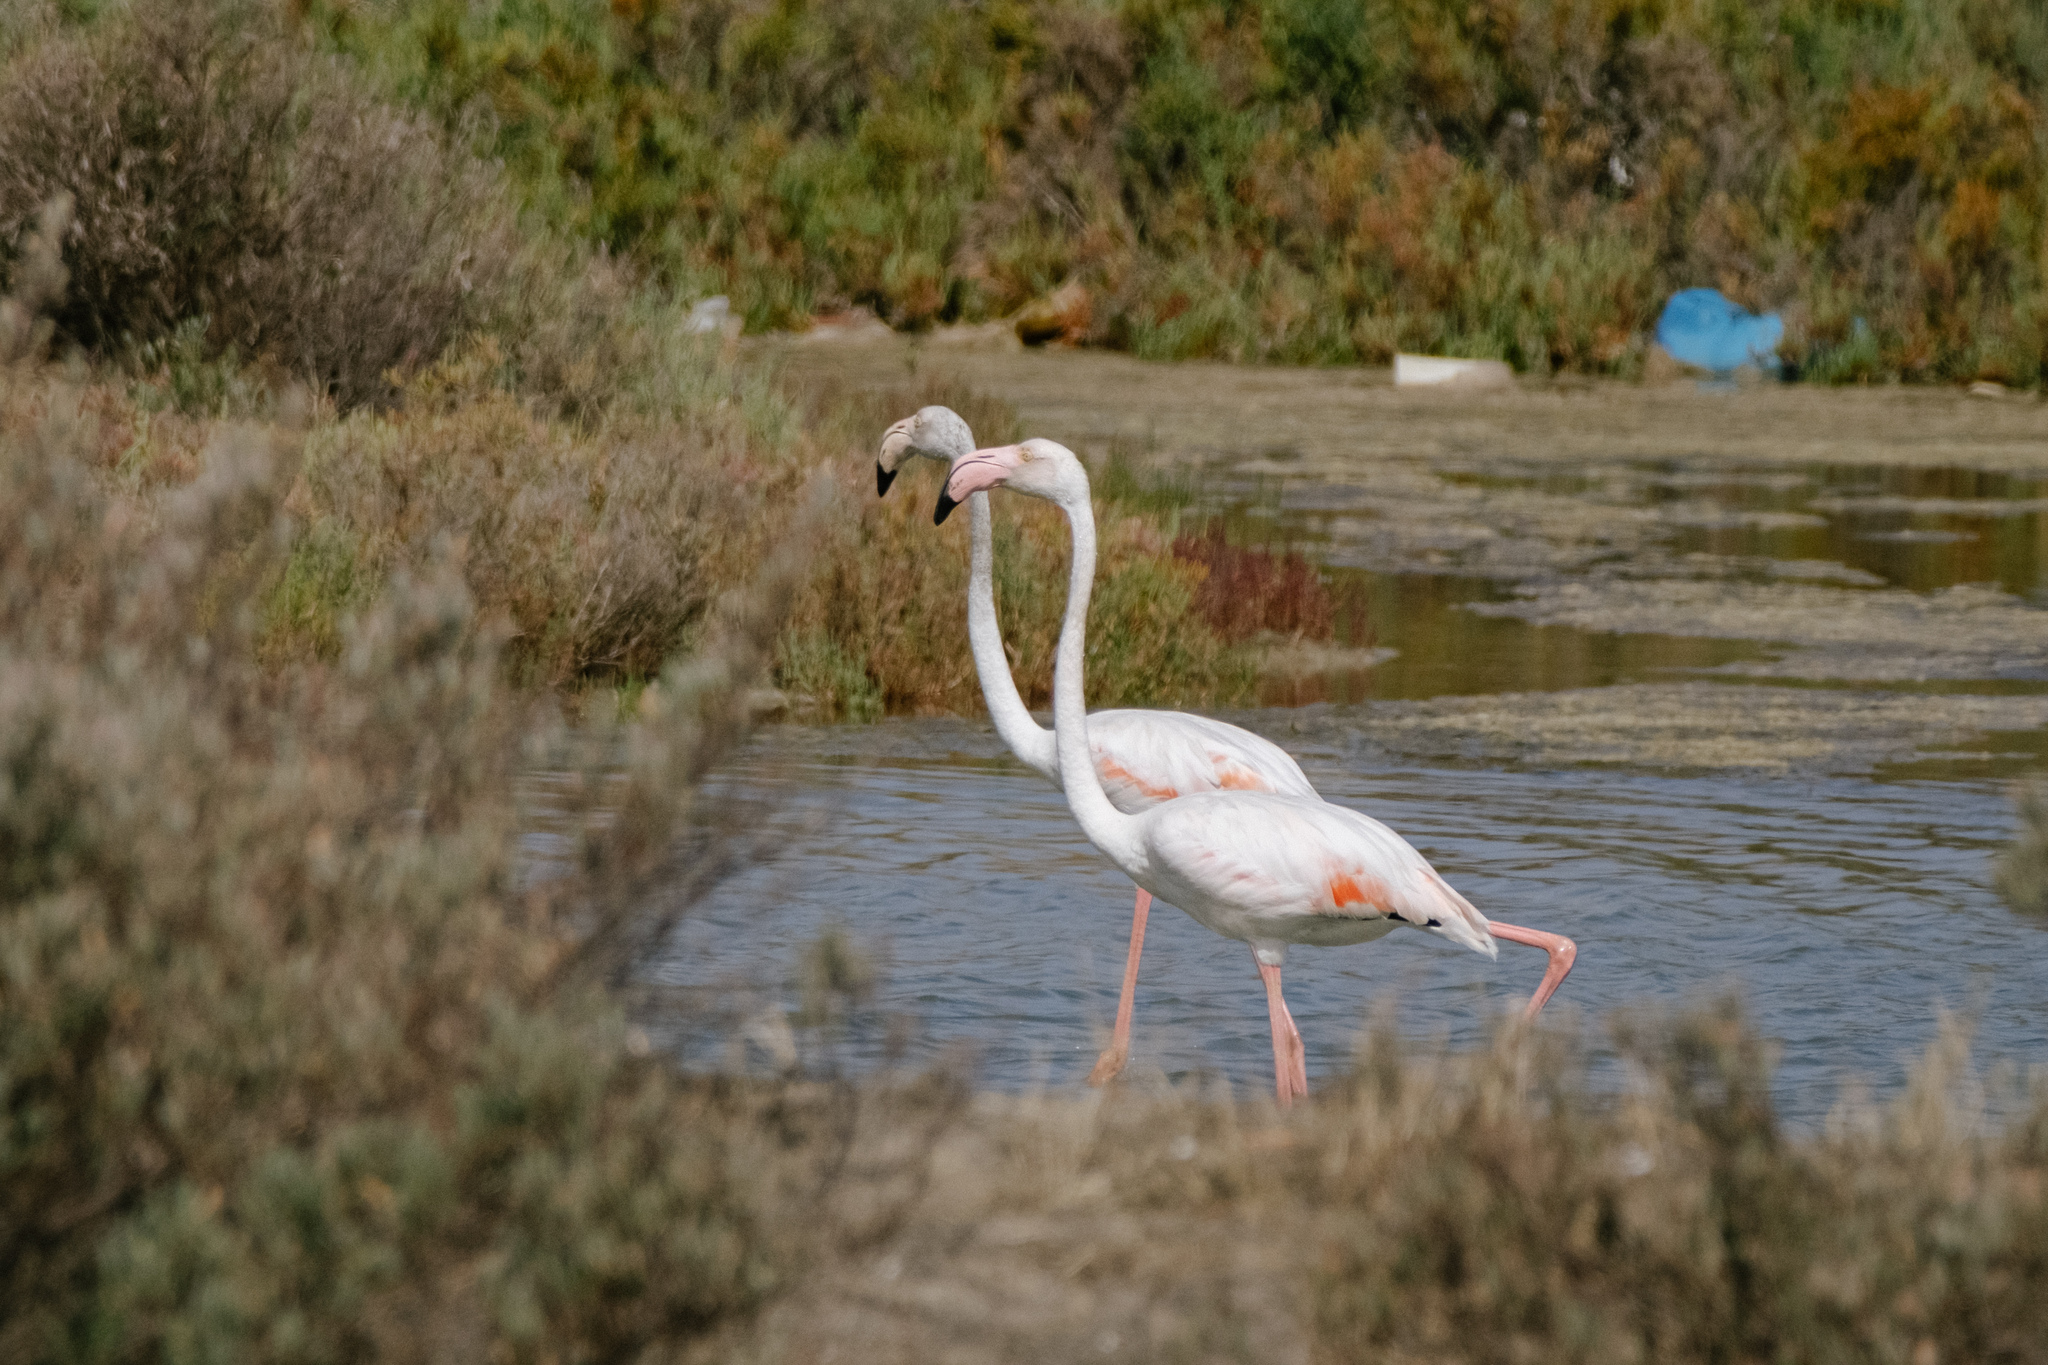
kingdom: Animalia
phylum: Chordata
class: Aves
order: Phoenicopteriformes
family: Phoenicopteridae
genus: Phoenicopterus
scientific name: Phoenicopterus roseus
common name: Greater flamingo
